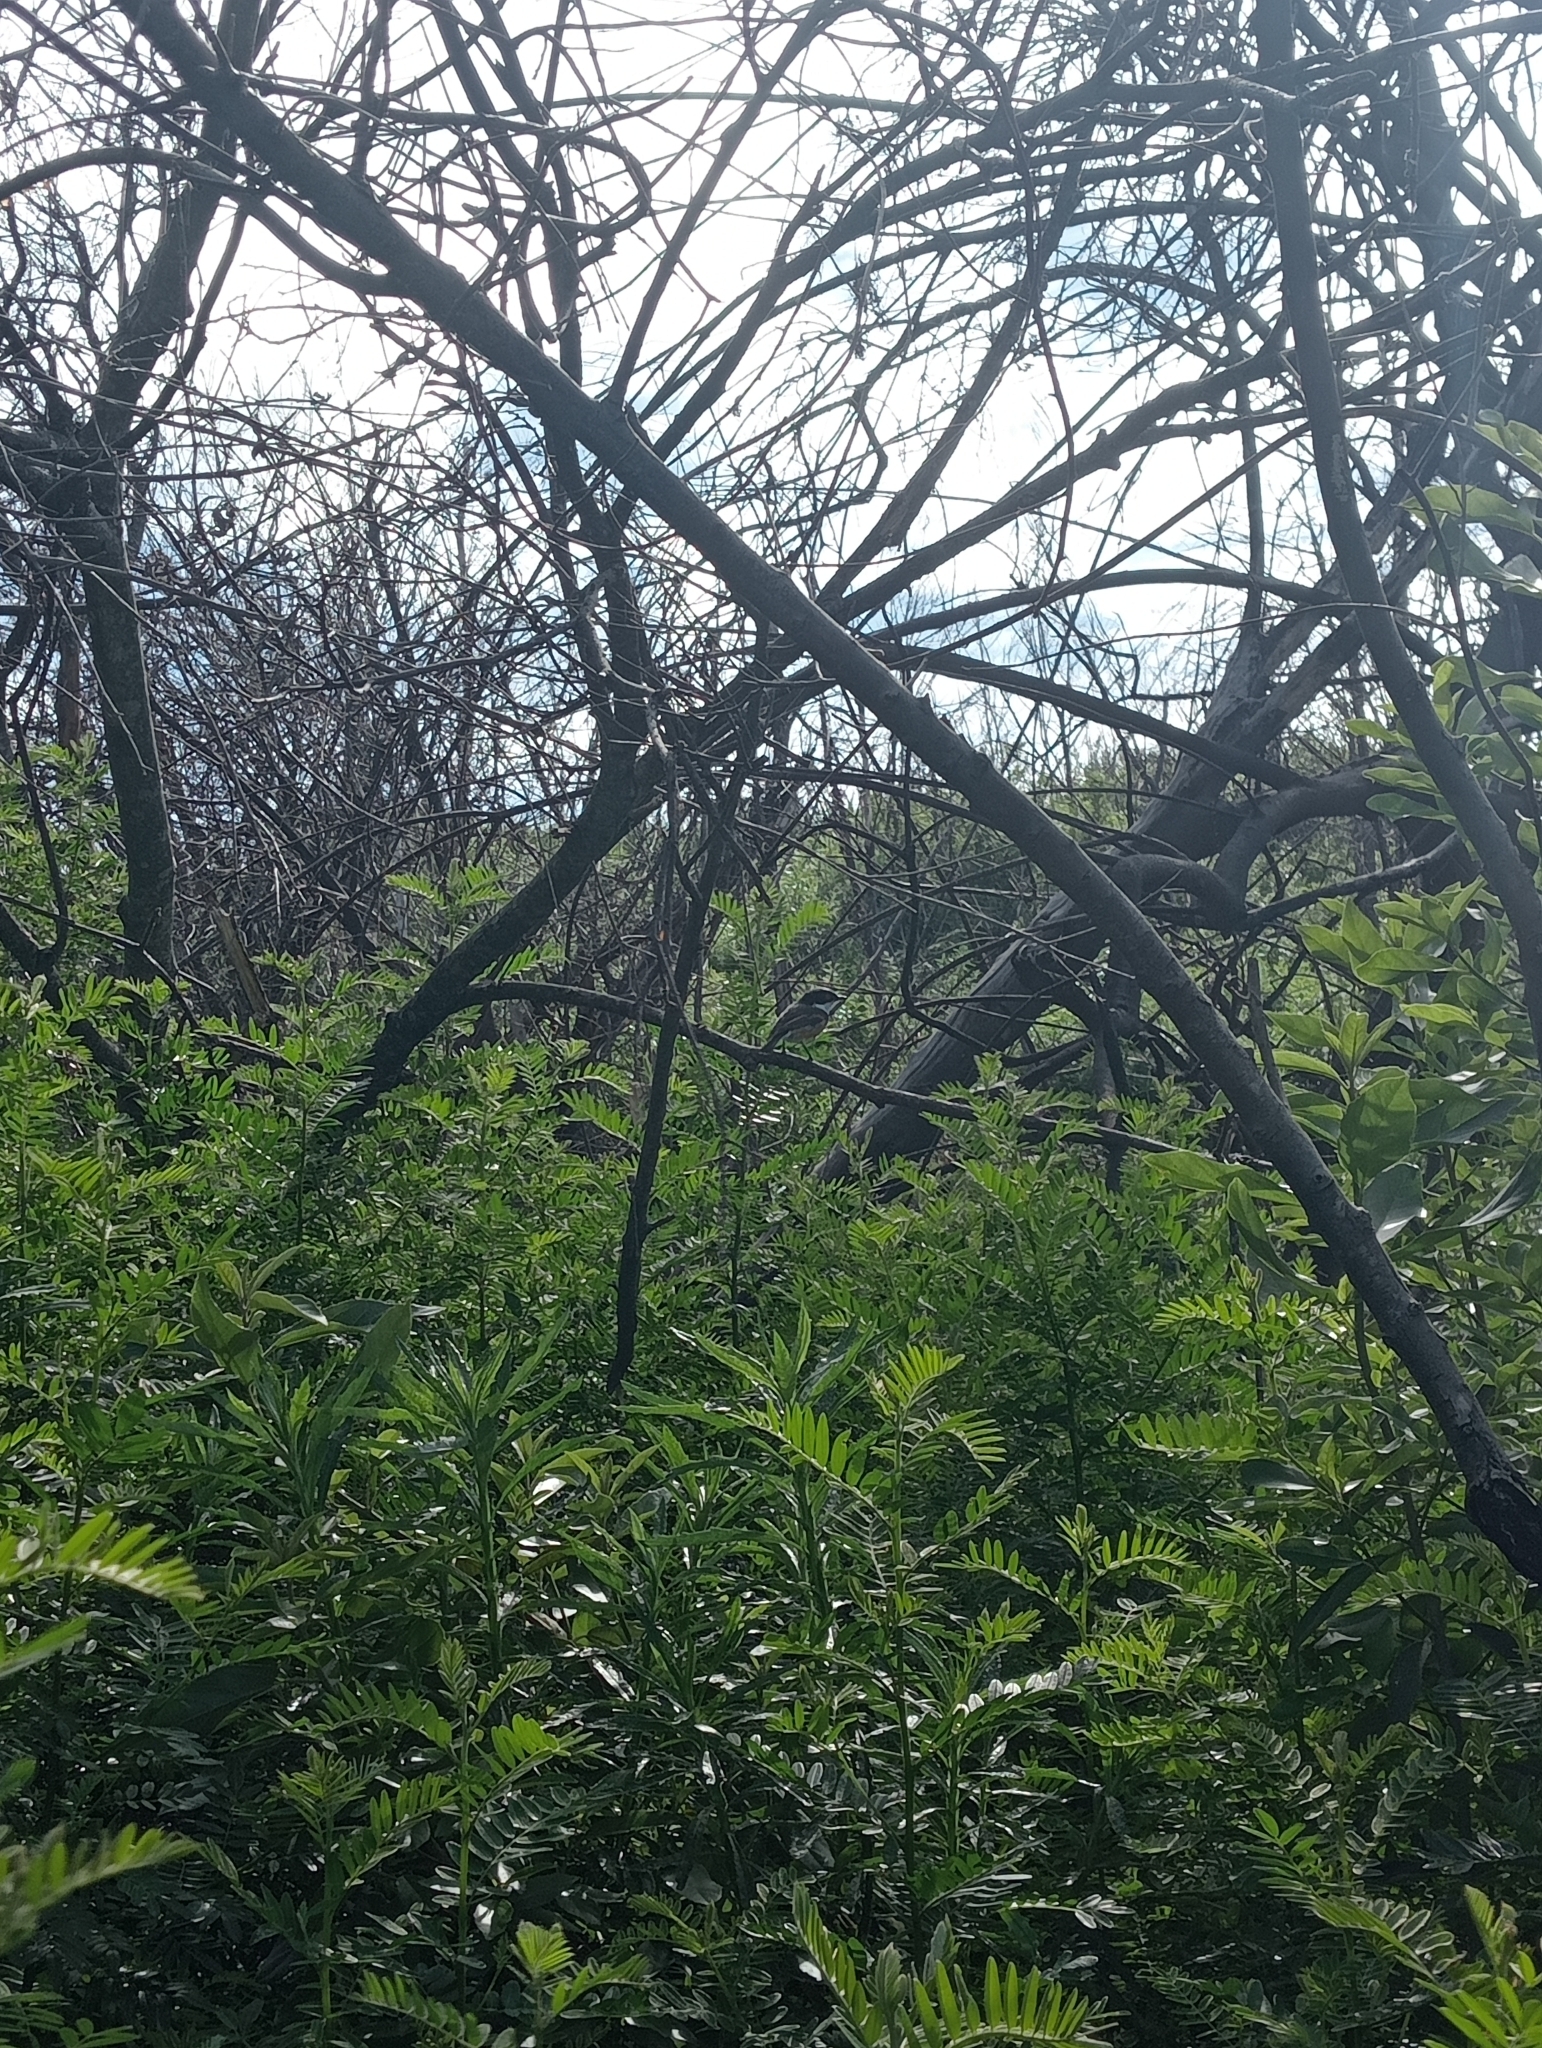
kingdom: Animalia
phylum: Chordata
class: Aves
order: Passeriformes
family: Platysteiridae
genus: Batis
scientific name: Batis capensis
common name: Cape batis
